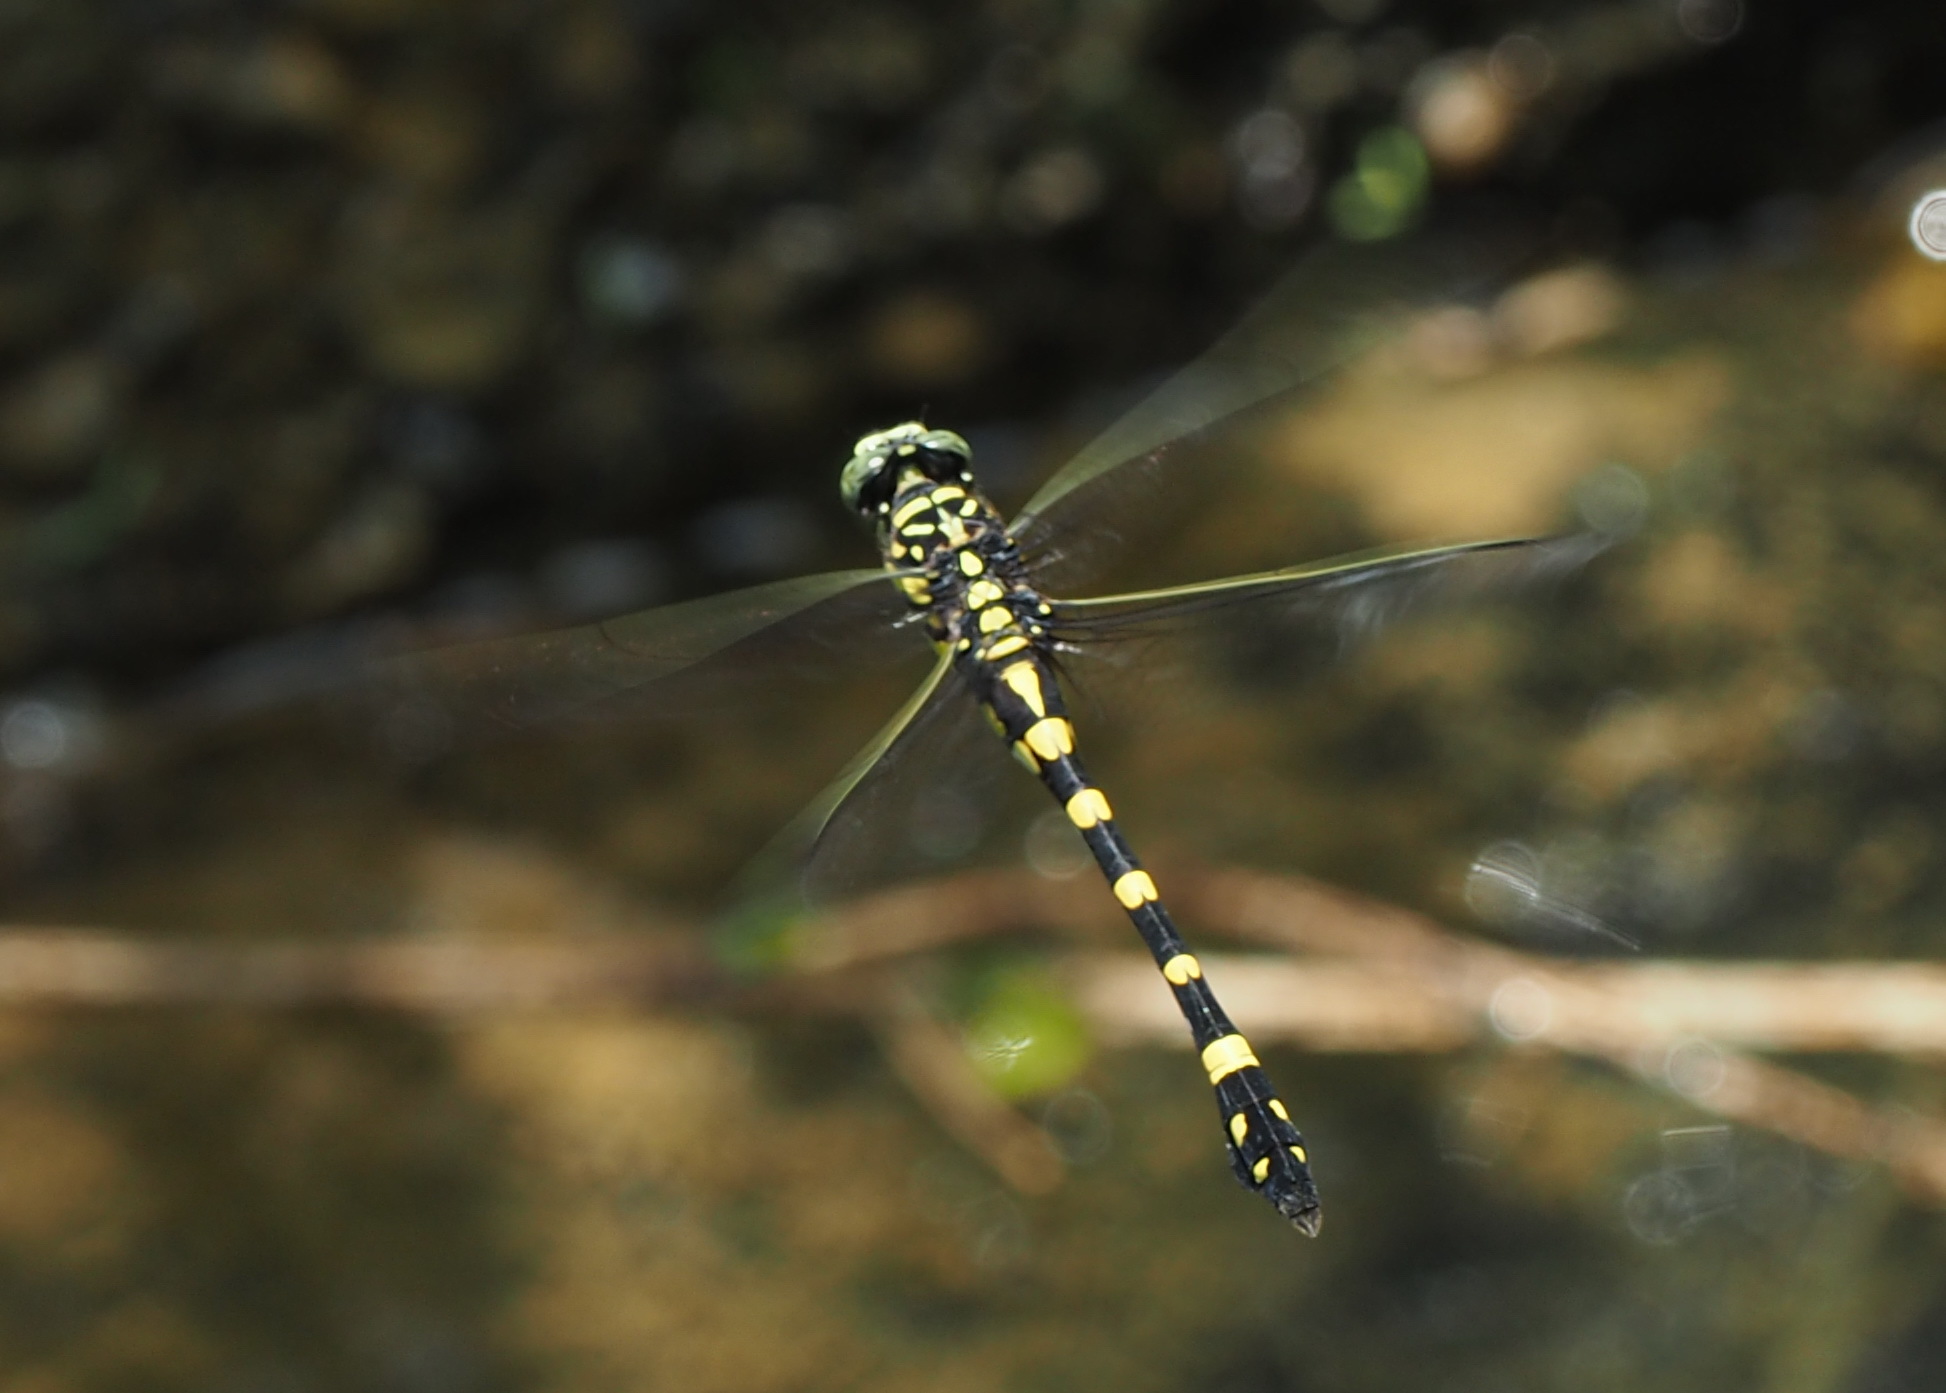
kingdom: Animalia
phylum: Arthropoda
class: Insecta
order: Odonata
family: Gomphidae
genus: Ictinogomphus
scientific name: Ictinogomphus rapax
